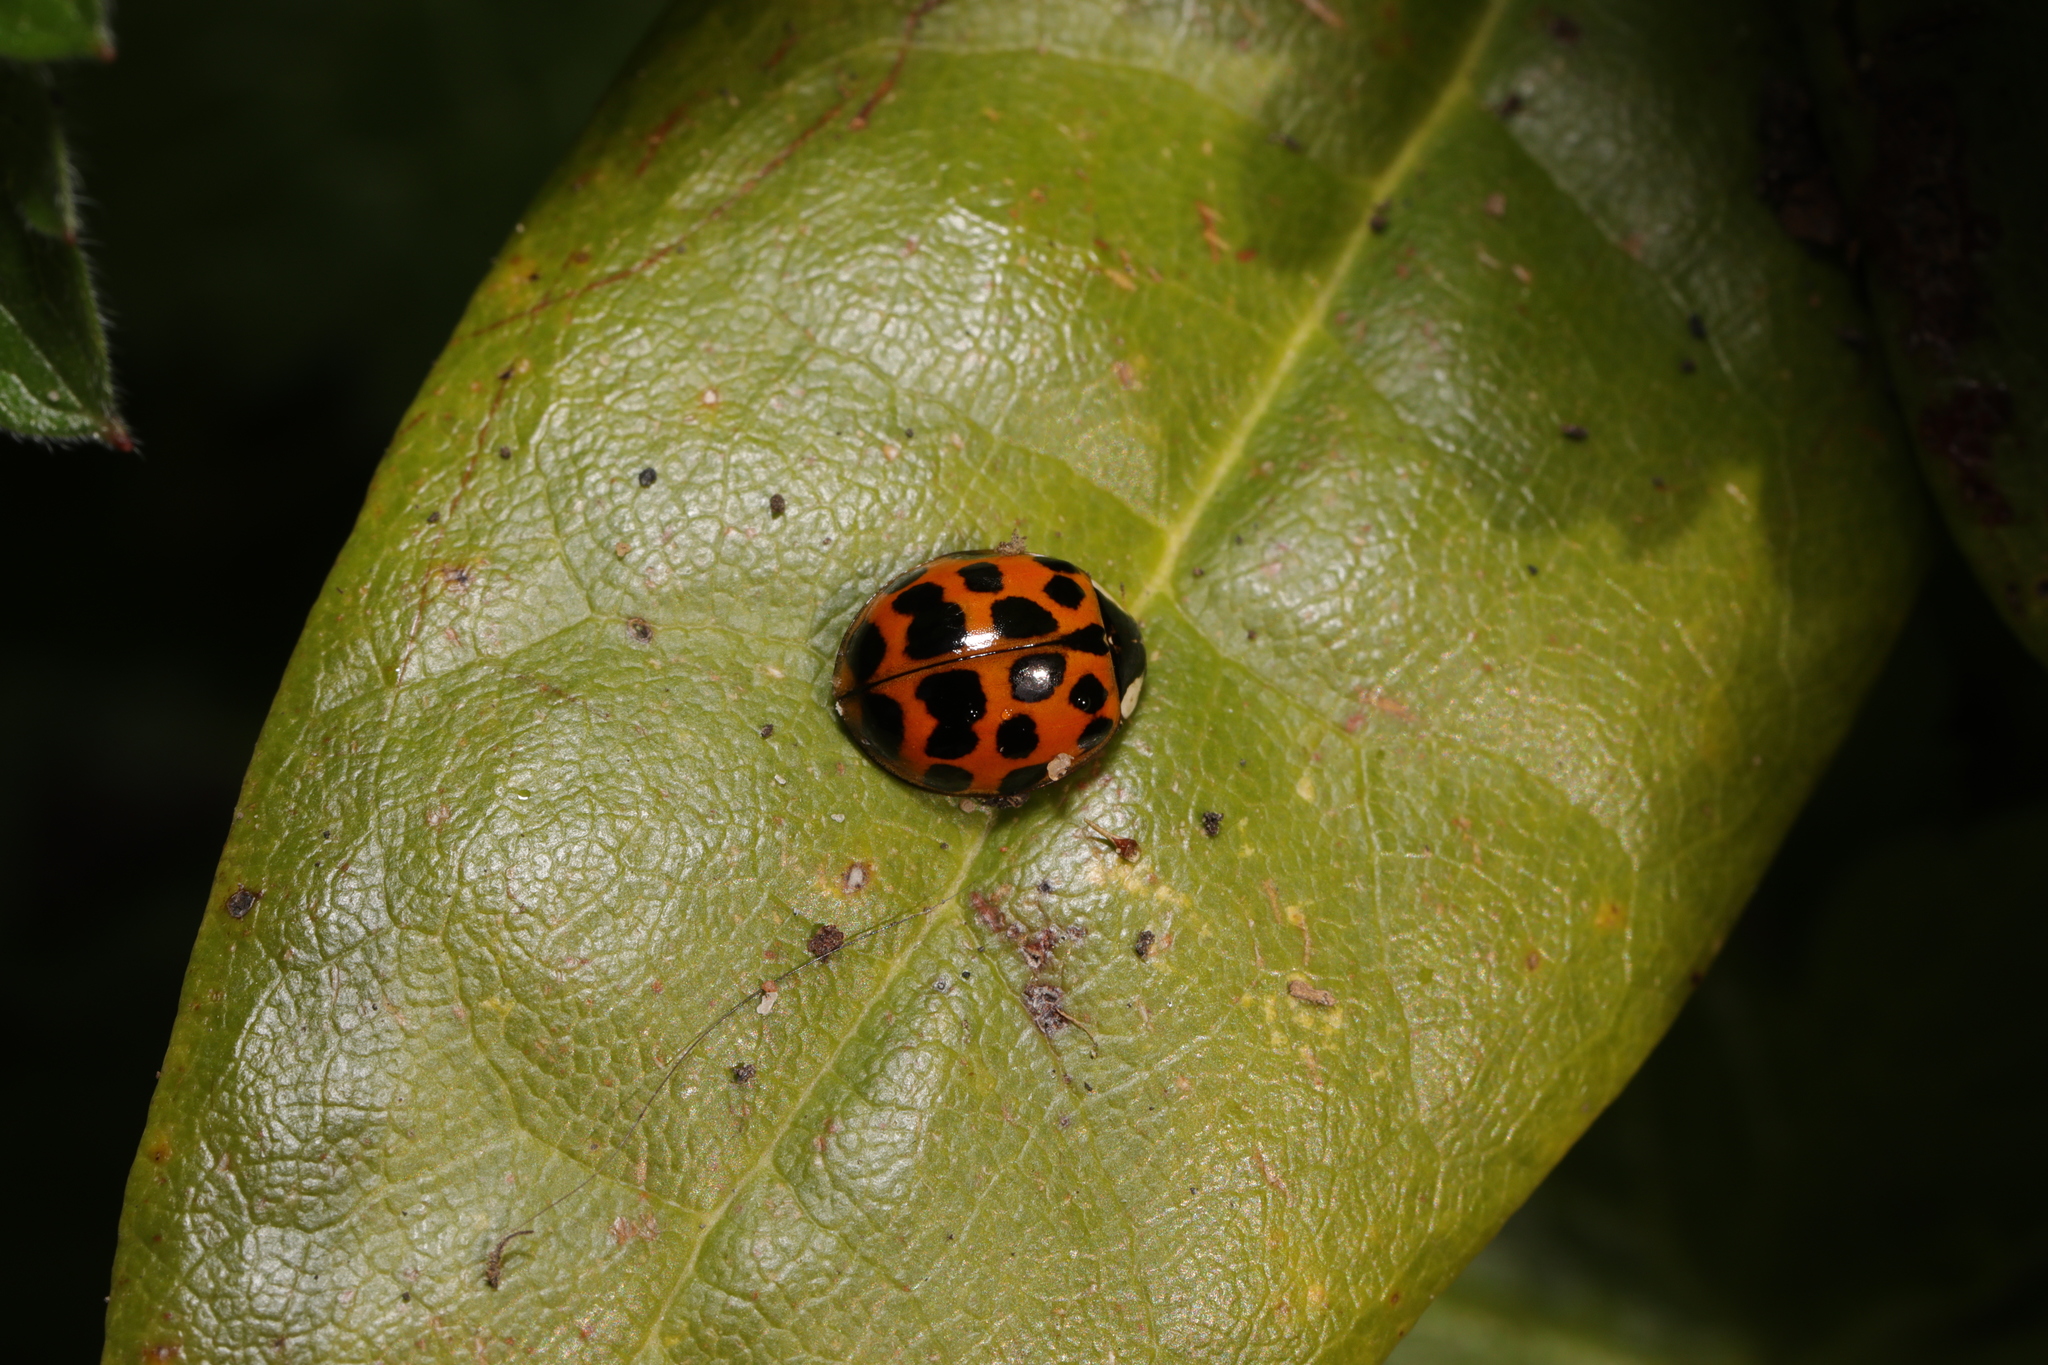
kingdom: Animalia
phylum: Arthropoda
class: Insecta
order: Coleoptera
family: Coccinellidae
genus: Harmonia
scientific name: Harmonia axyridis
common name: Harlequin ladybird
